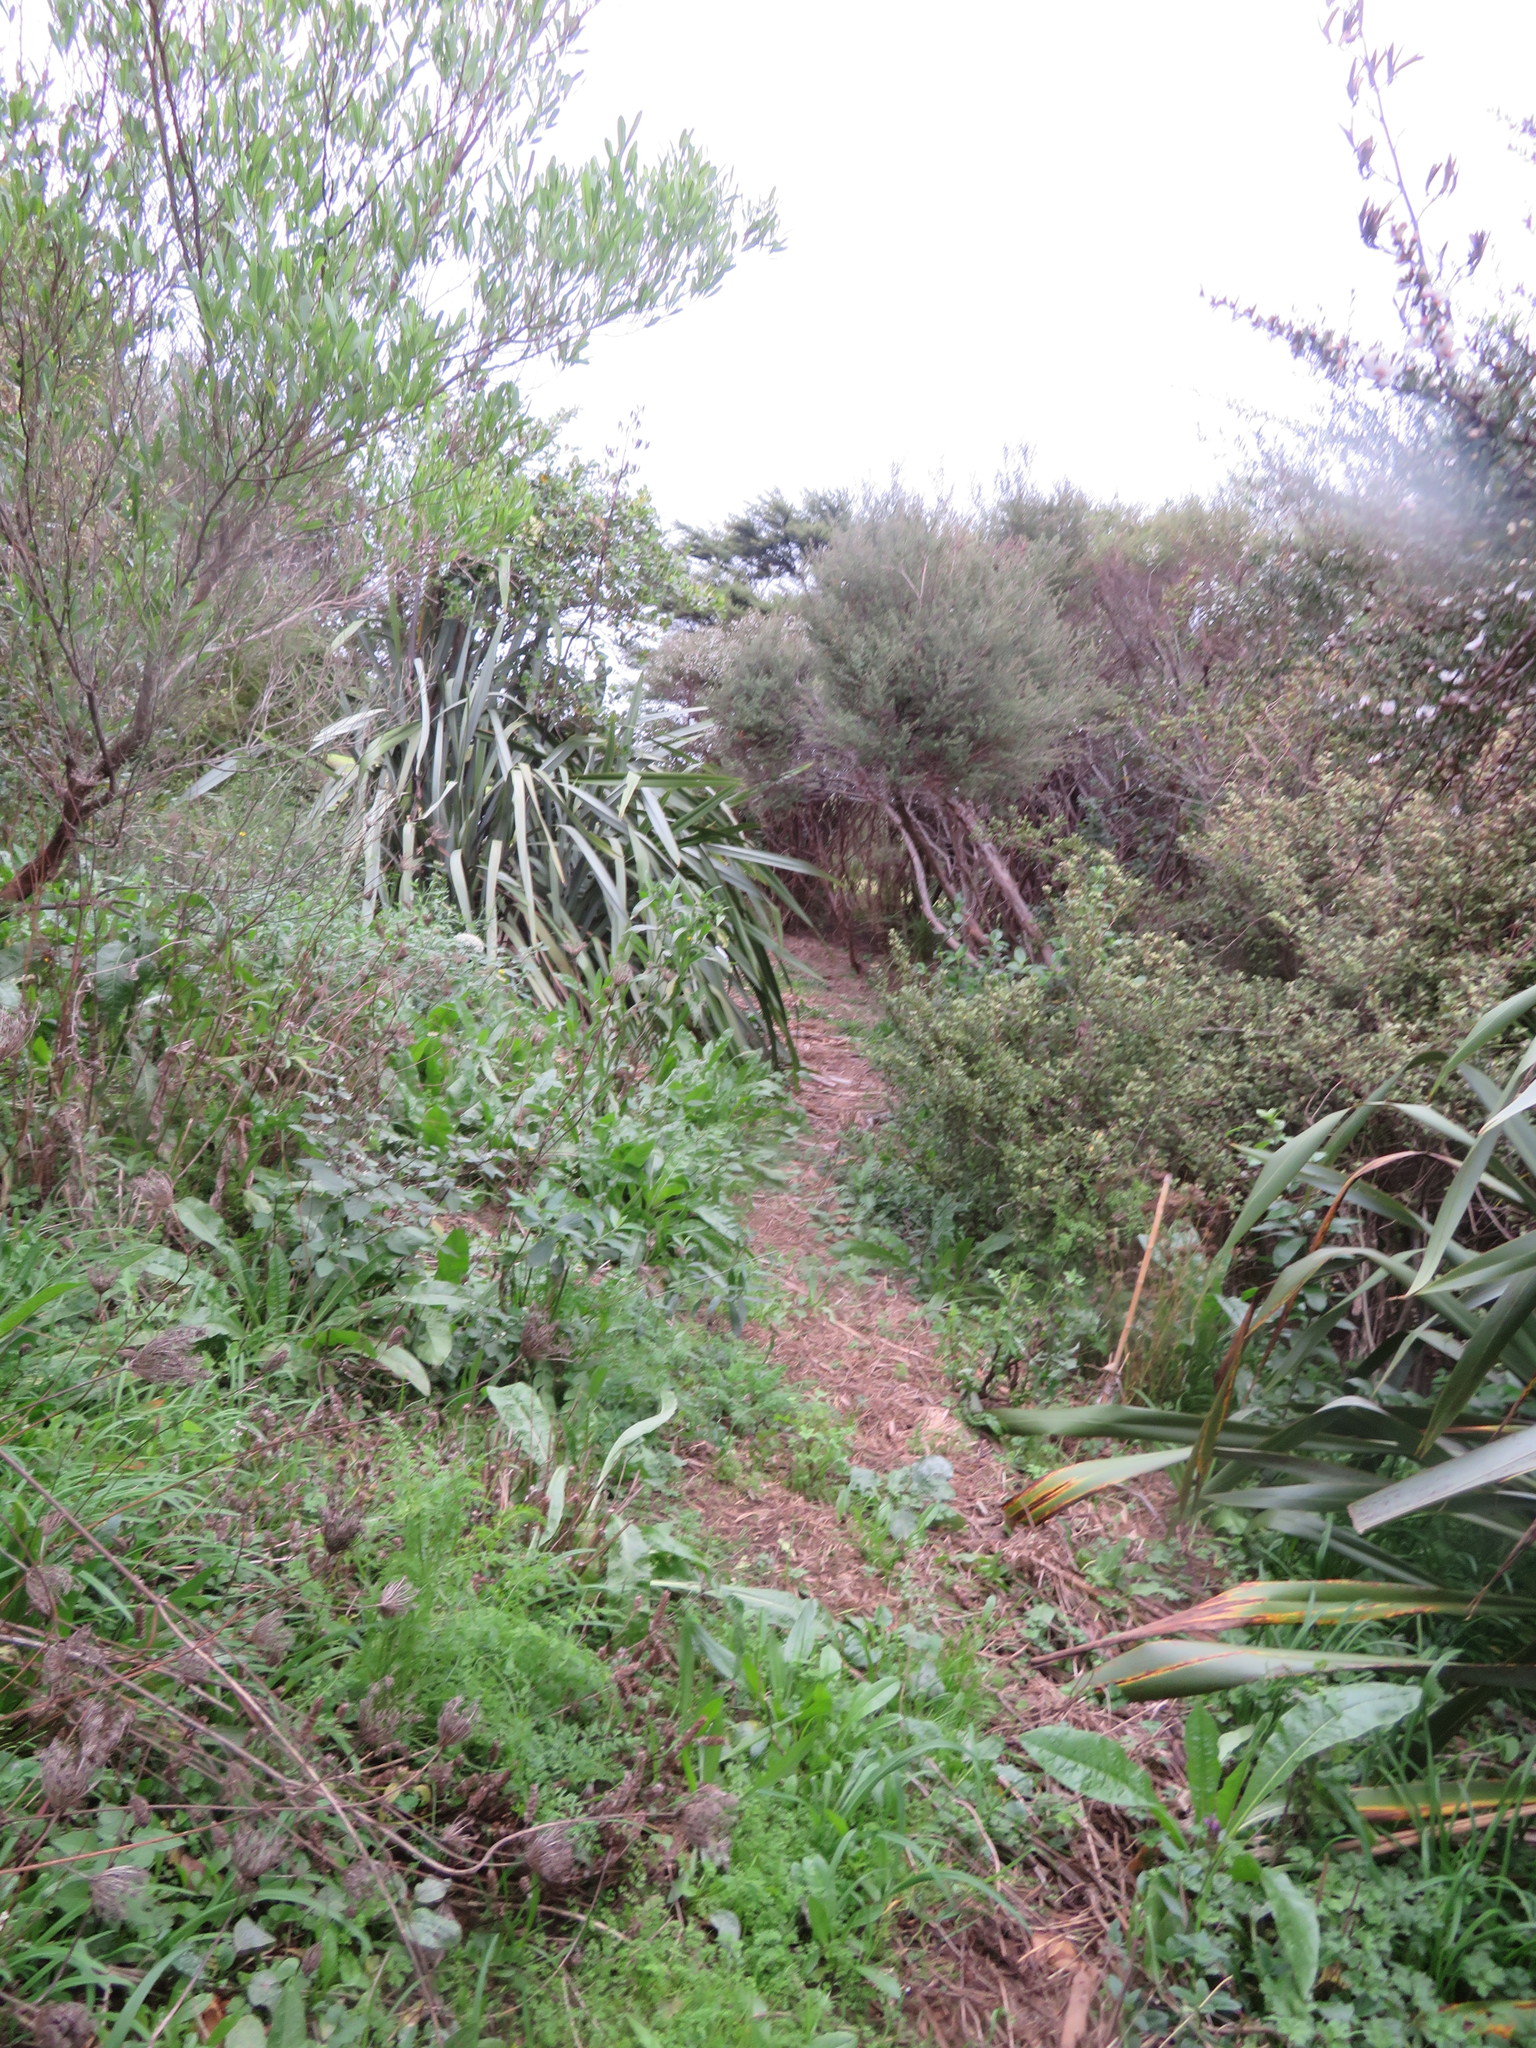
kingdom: Plantae
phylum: Tracheophyta
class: Magnoliopsida
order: Sapindales
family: Sapindaceae
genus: Dodonaea
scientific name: Dodonaea viscosa
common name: Hopbush
